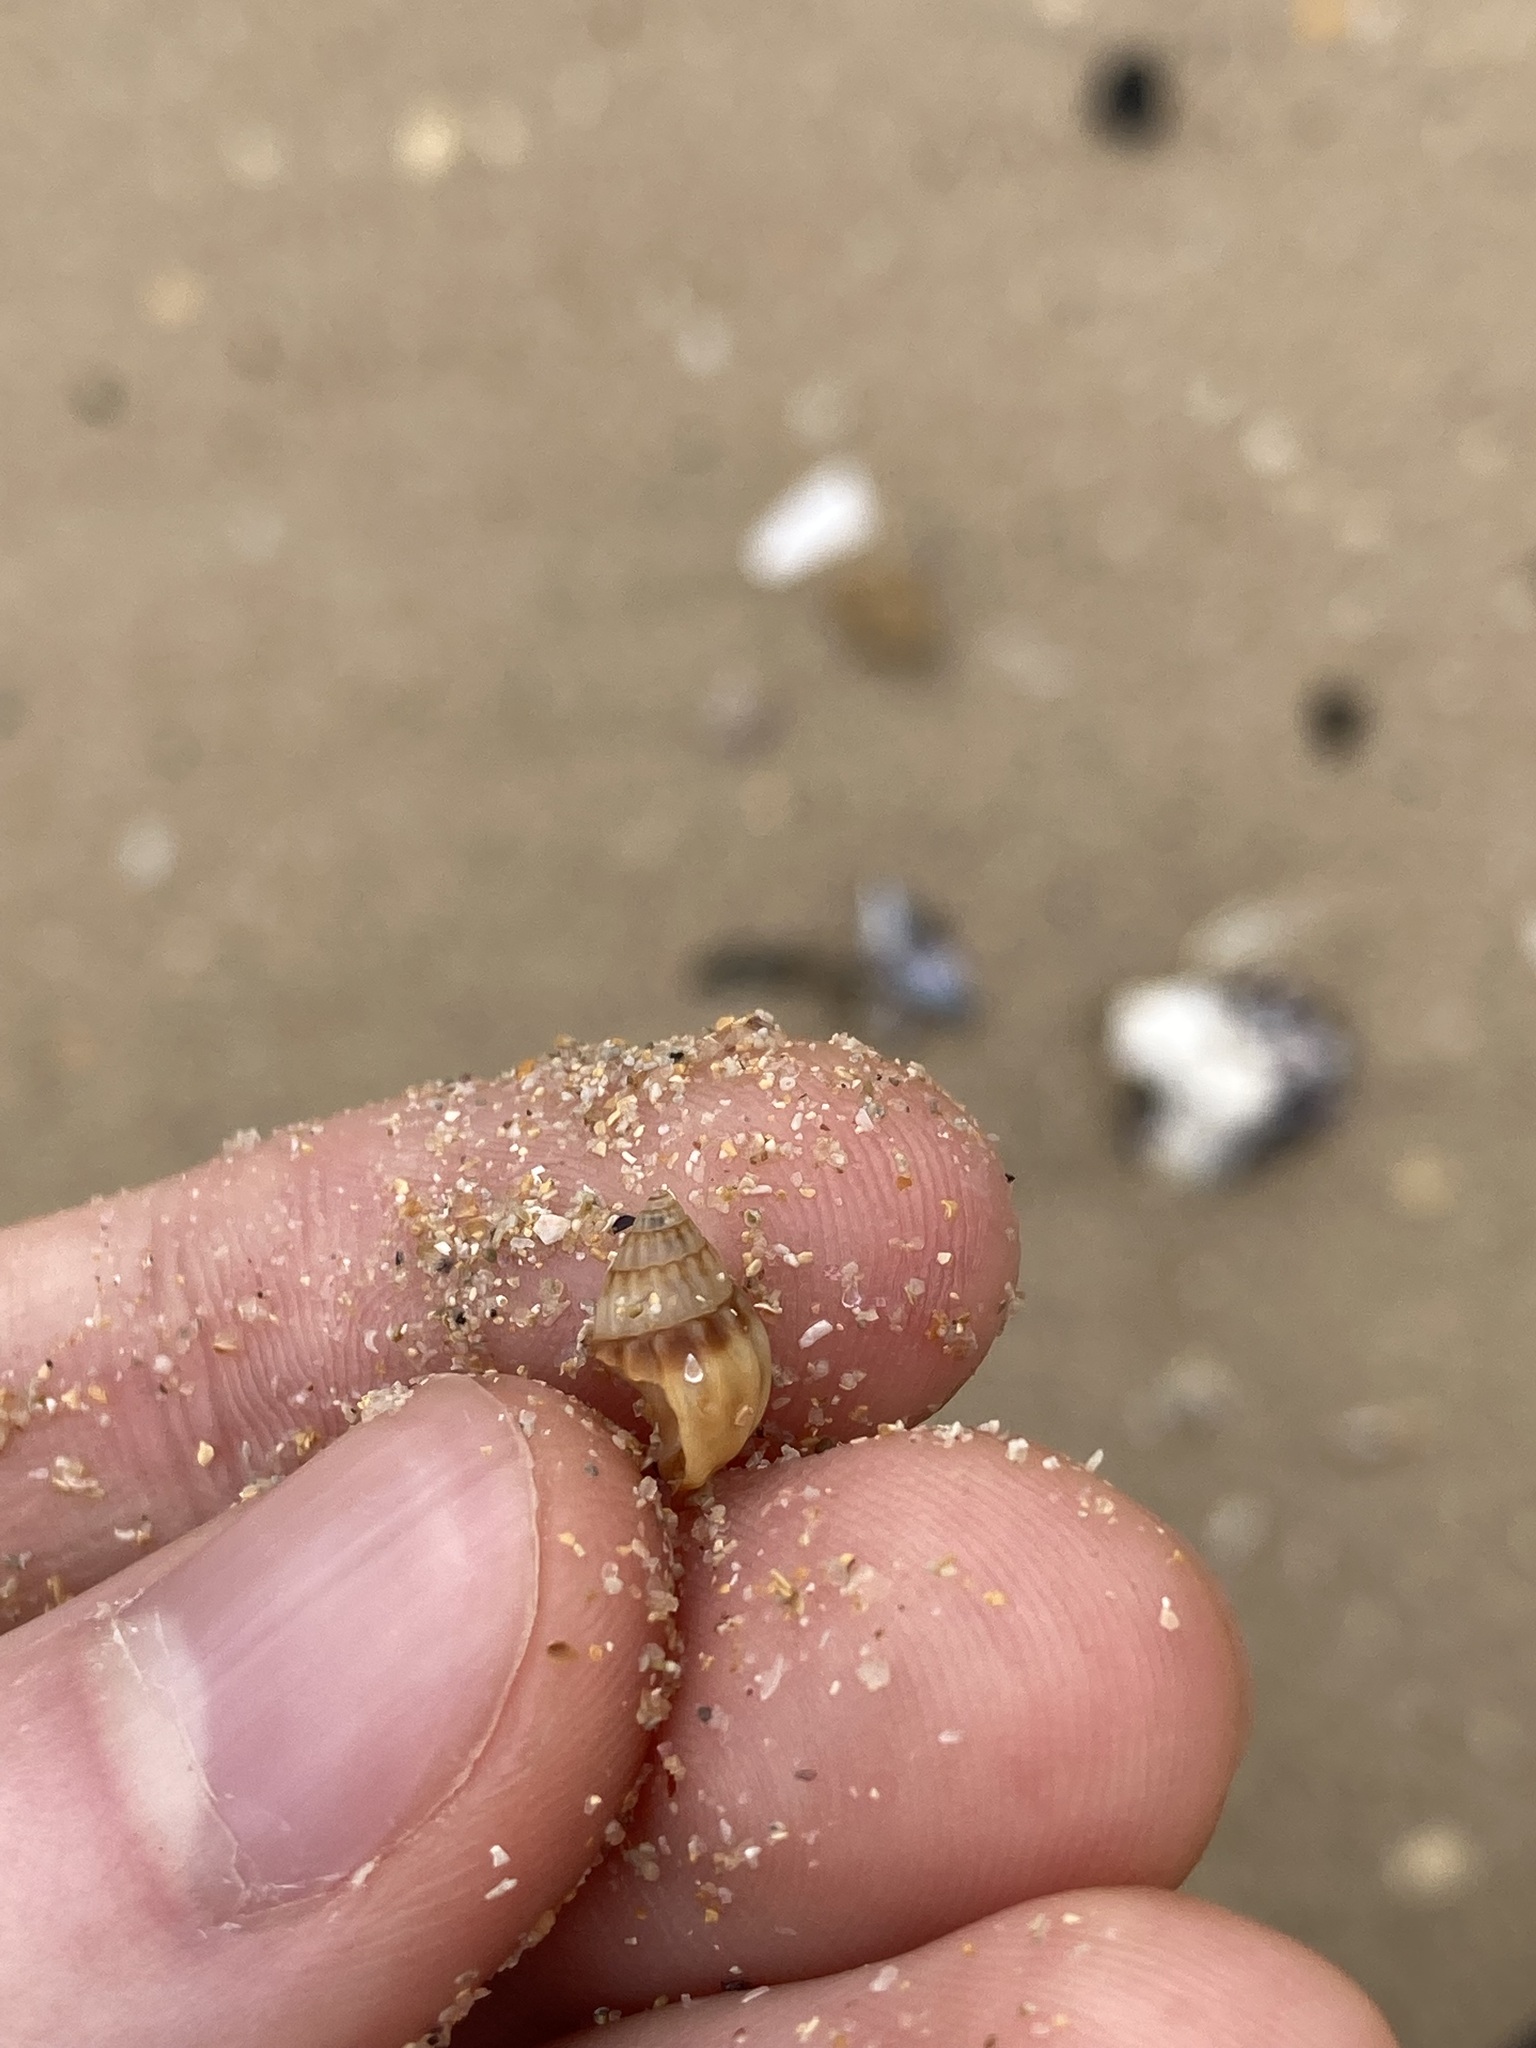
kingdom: Animalia
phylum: Mollusca
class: Gastropoda
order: Neogastropoda
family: Nassariidae
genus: Tritia
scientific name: Tritia burchardi
